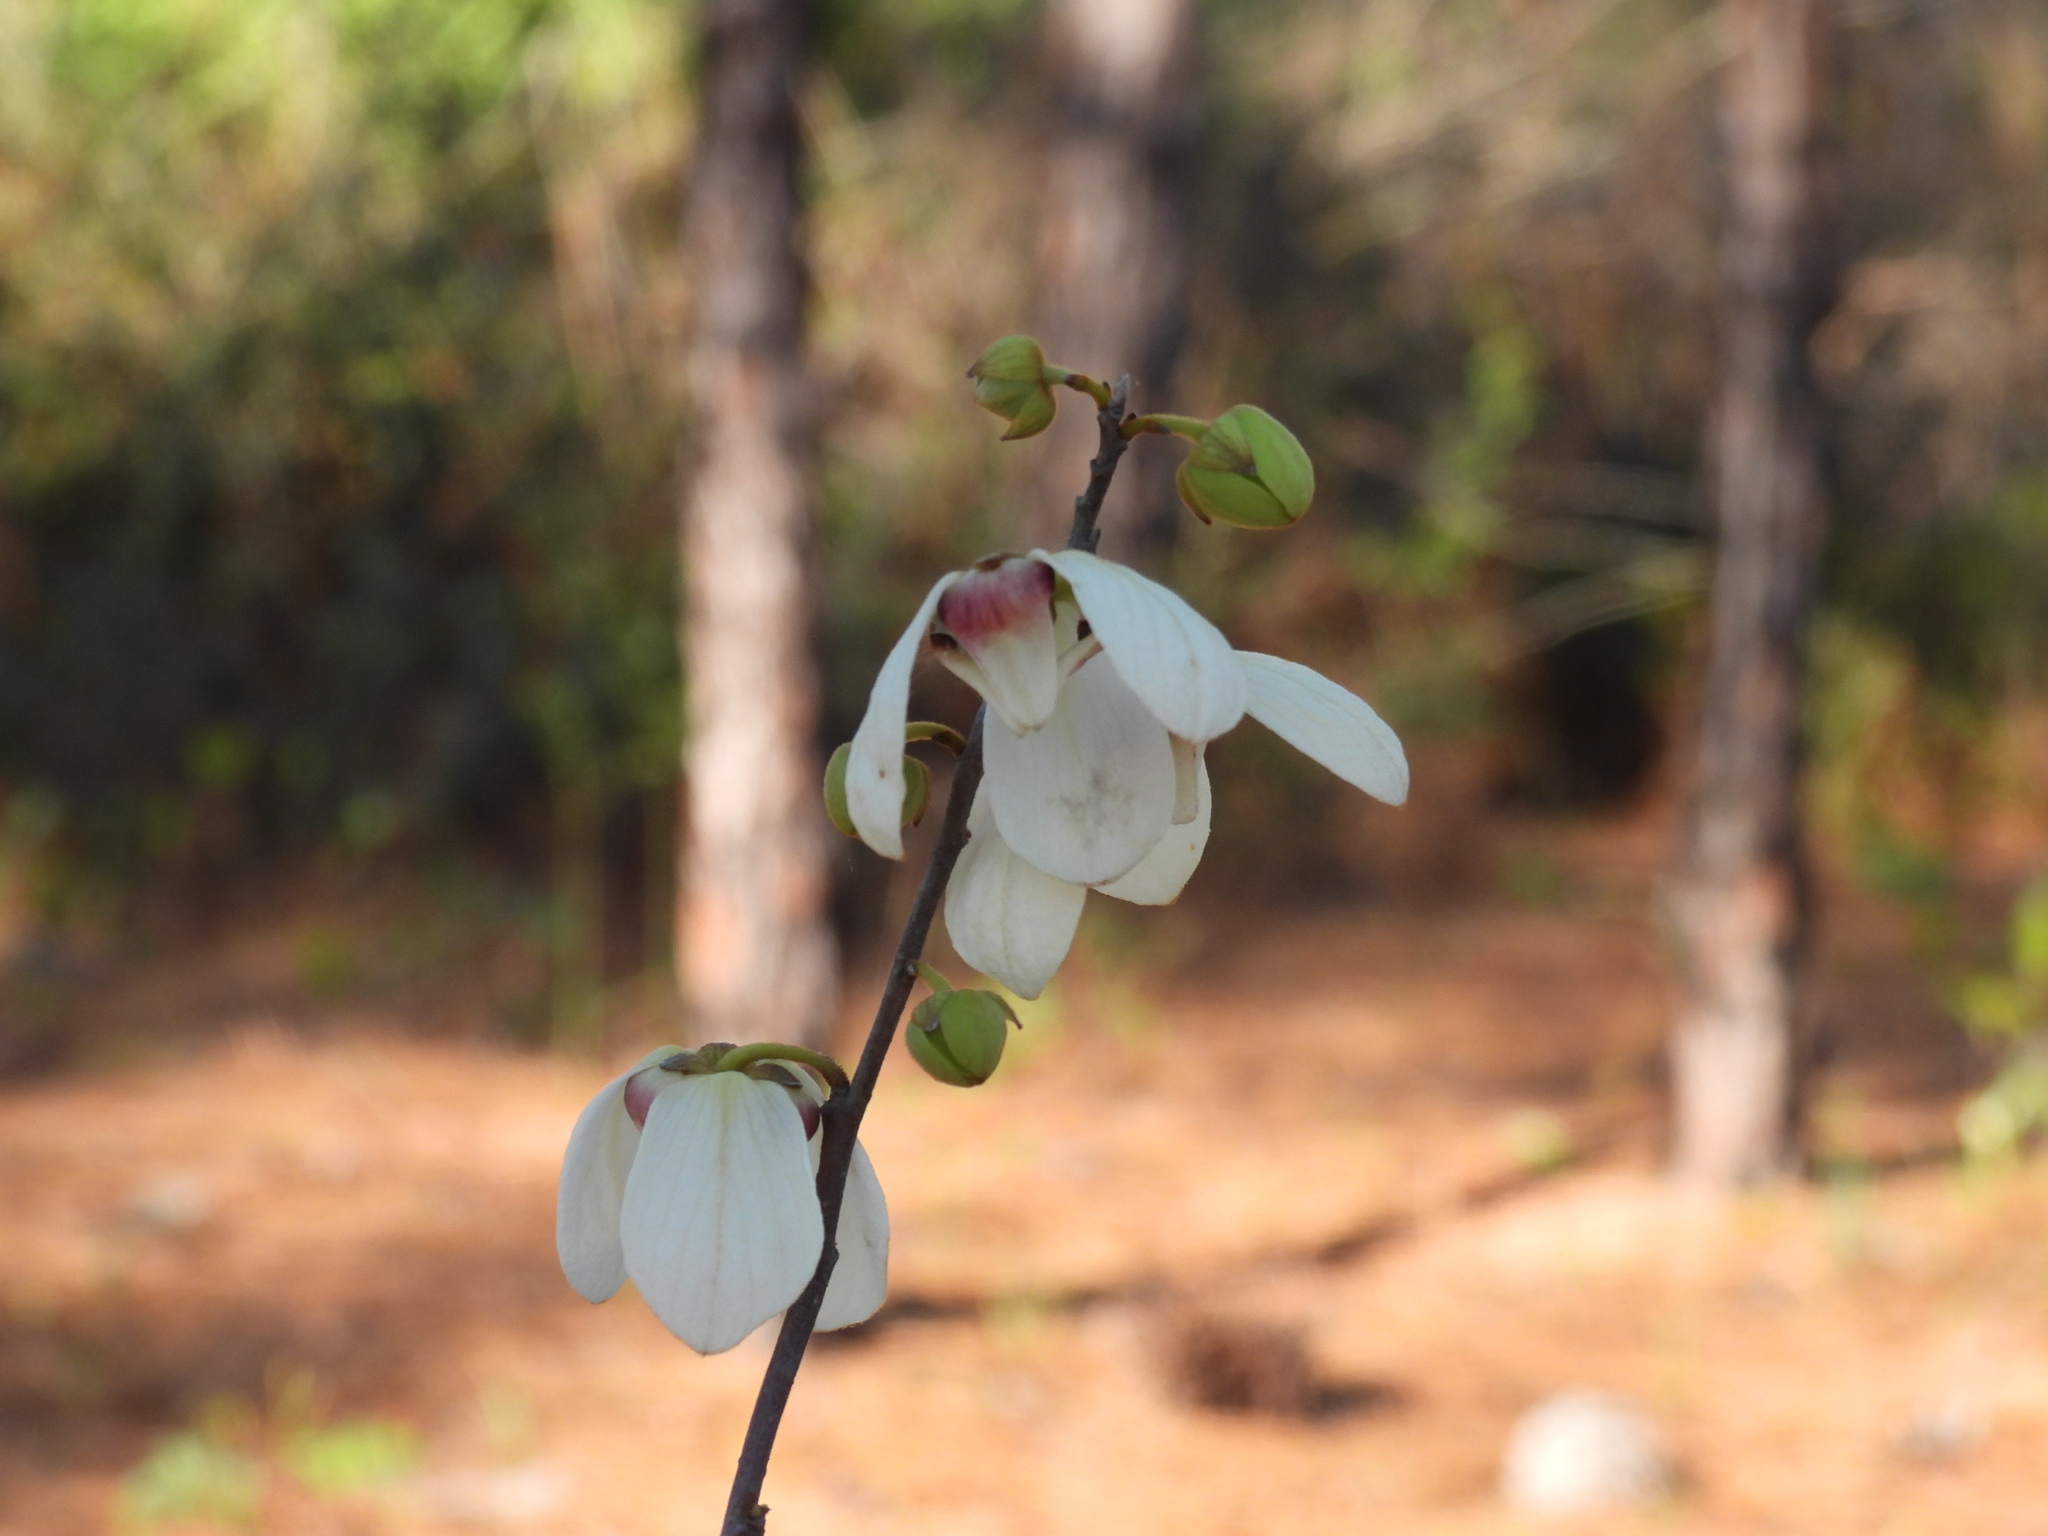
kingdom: Plantae
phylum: Tracheophyta
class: Magnoliopsida
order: Magnoliales
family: Annonaceae
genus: Asimina
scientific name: Asimina reticulata
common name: Flag pawpaw
